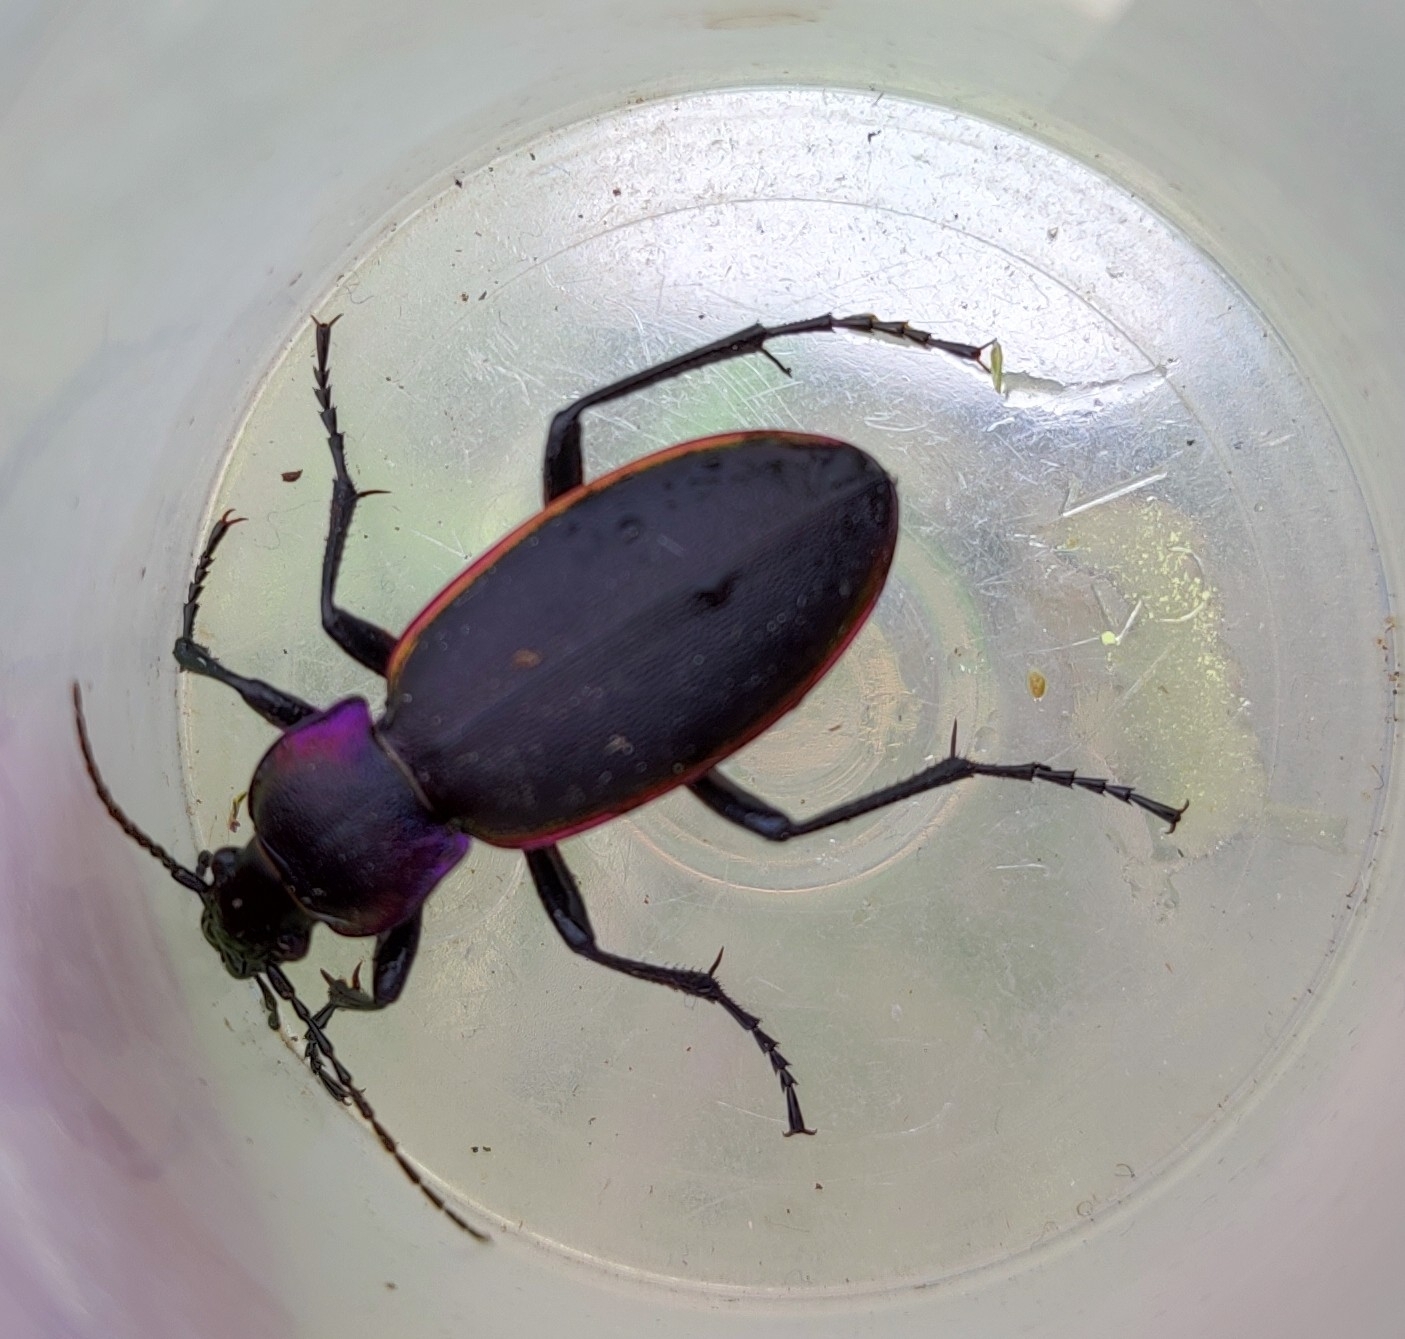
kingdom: Animalia
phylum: Arthropoda
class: Insecta
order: Coleoptera
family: Carabidae
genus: Carabus
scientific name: Carabus violaceus
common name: Violet ground beetle
